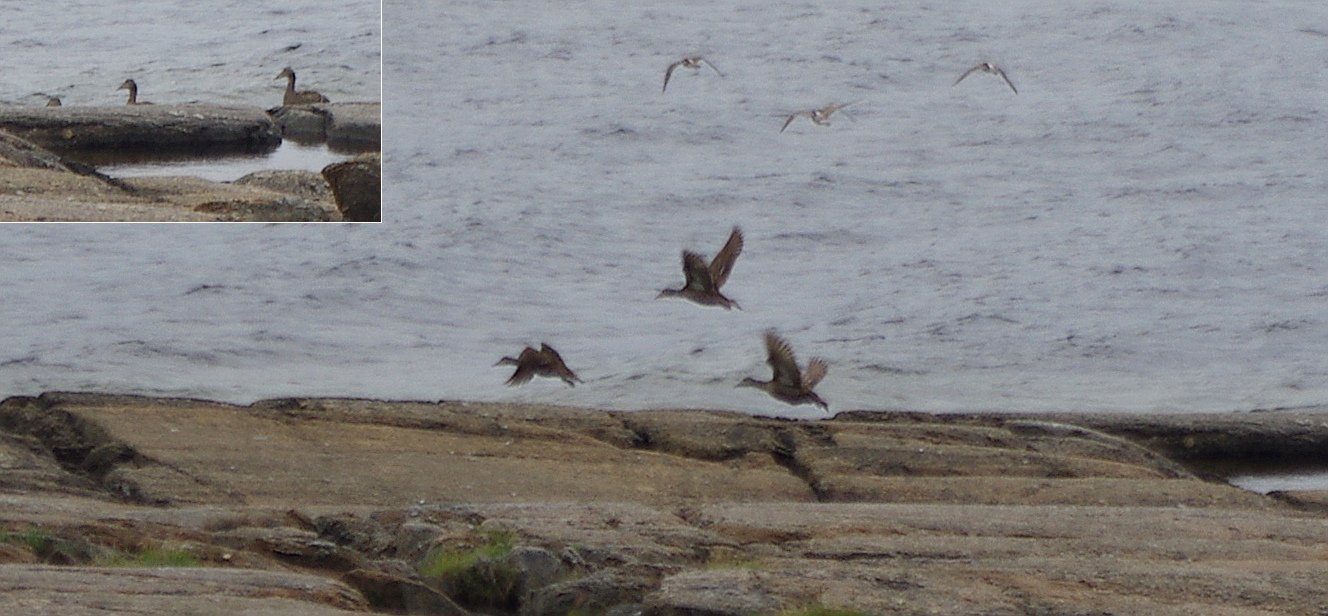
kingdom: Animalia
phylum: Chordata
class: Aves
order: Anseriformes
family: Anatidae
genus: Somateria
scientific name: Somateria mollissima
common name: Common eider
